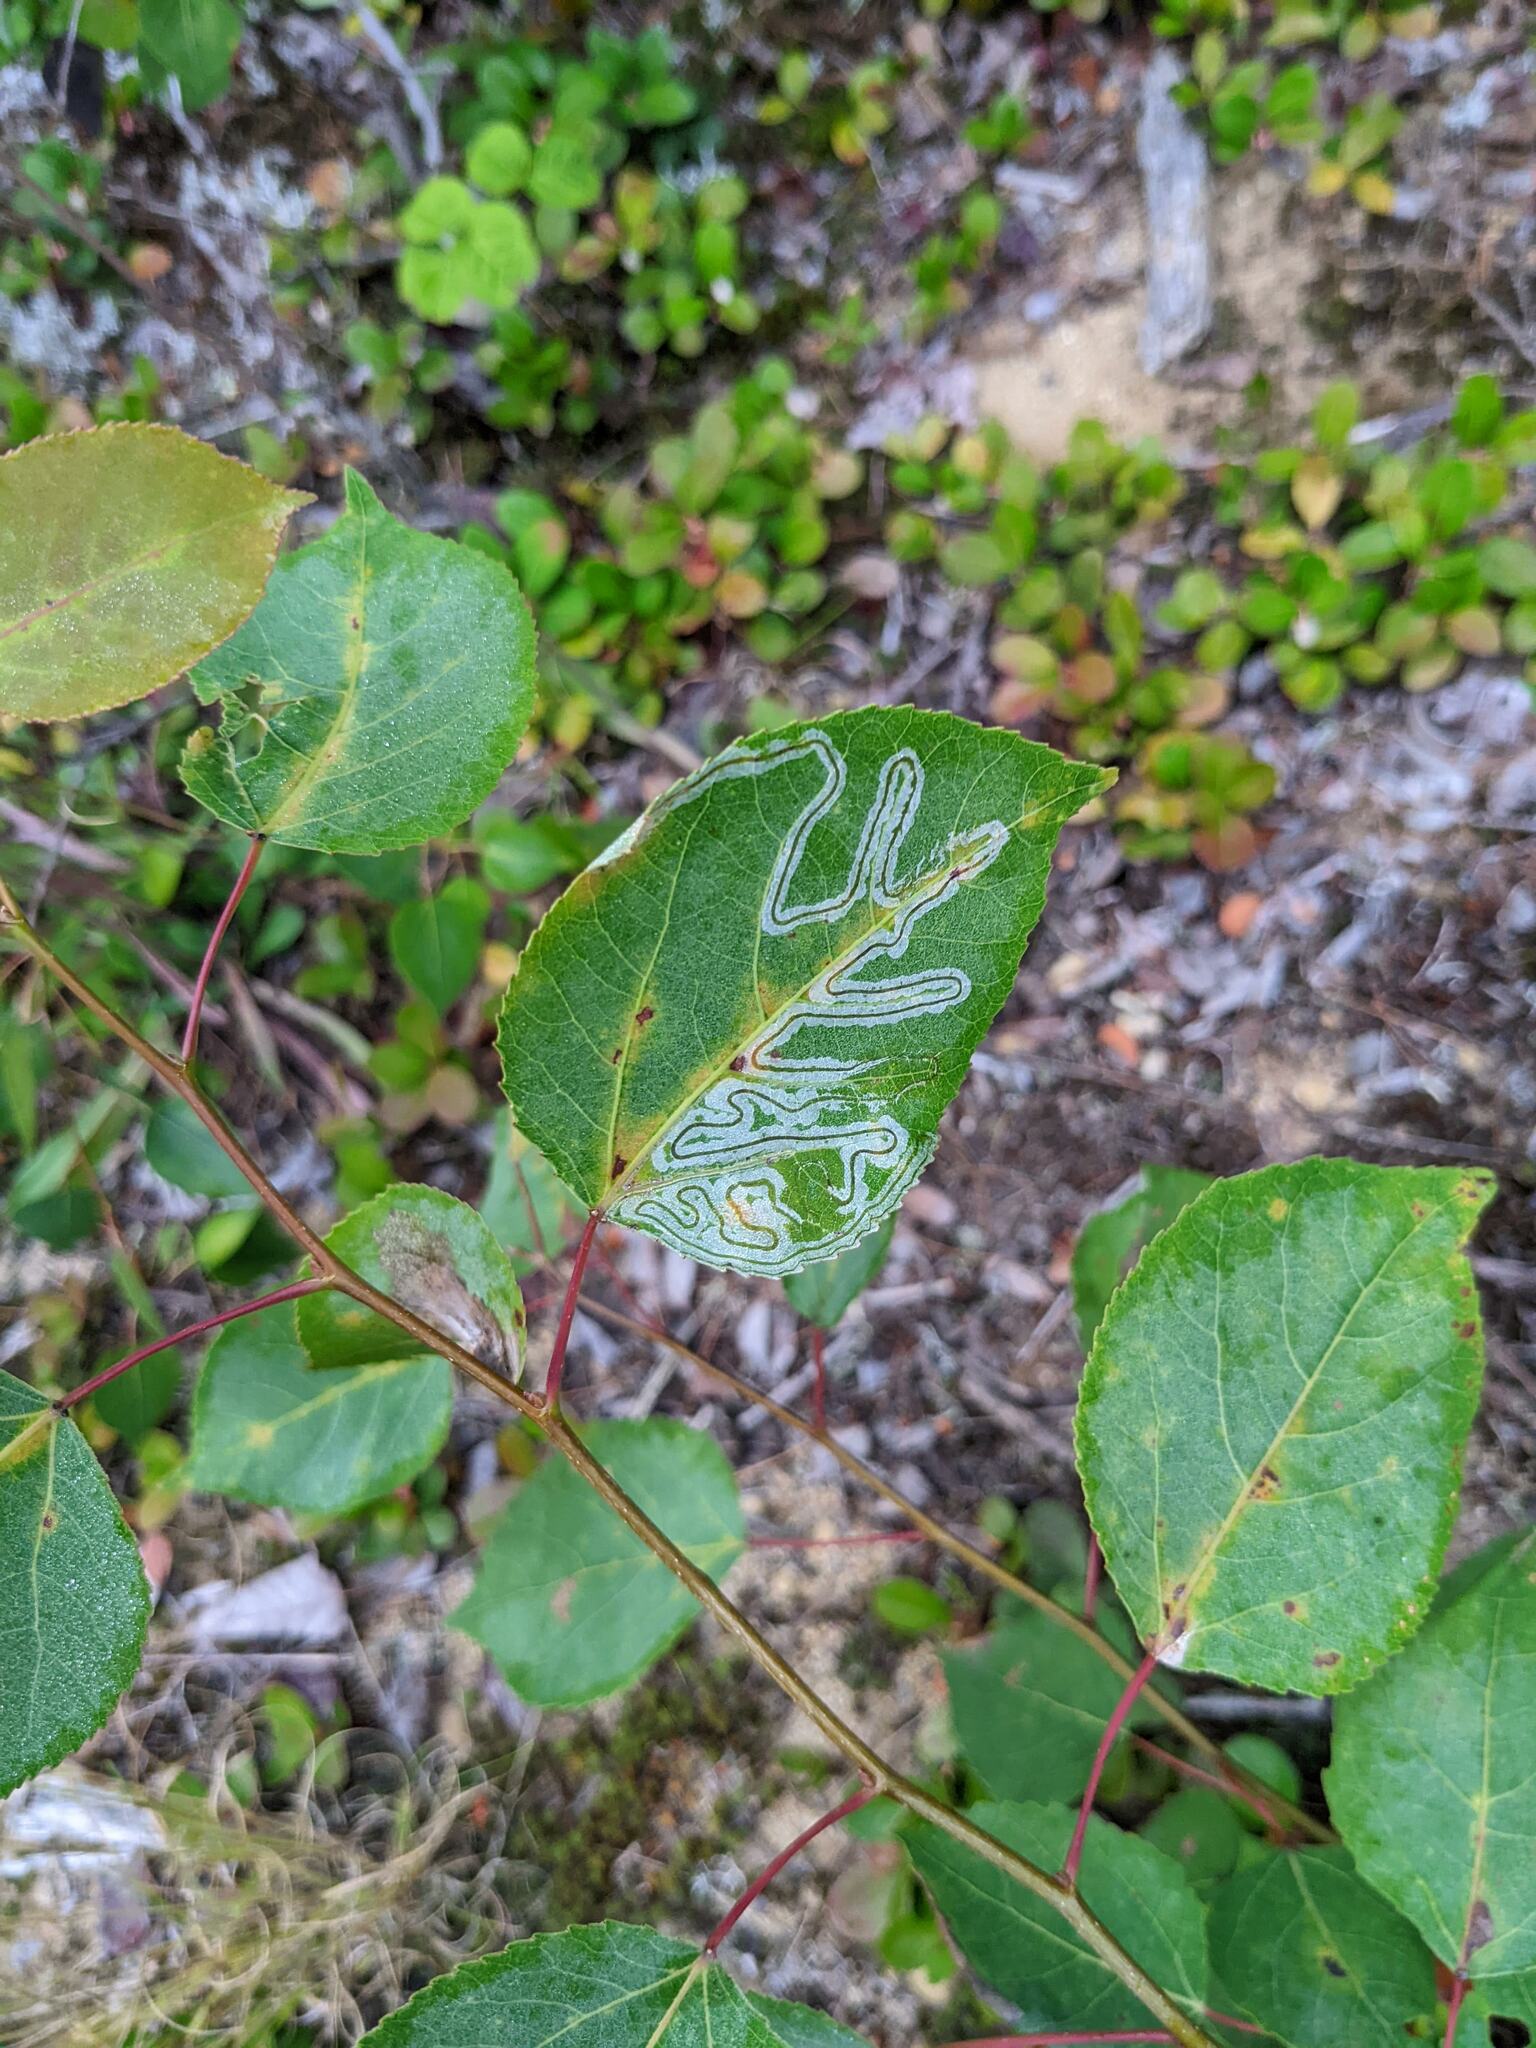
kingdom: Animalia
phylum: Arthropoda
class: Insecta
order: Lepidoptera
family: Gracillariidae
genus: Phyllocnistis
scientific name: Phyllocnistis populiella
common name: Aspen serpentine leafminer moth
